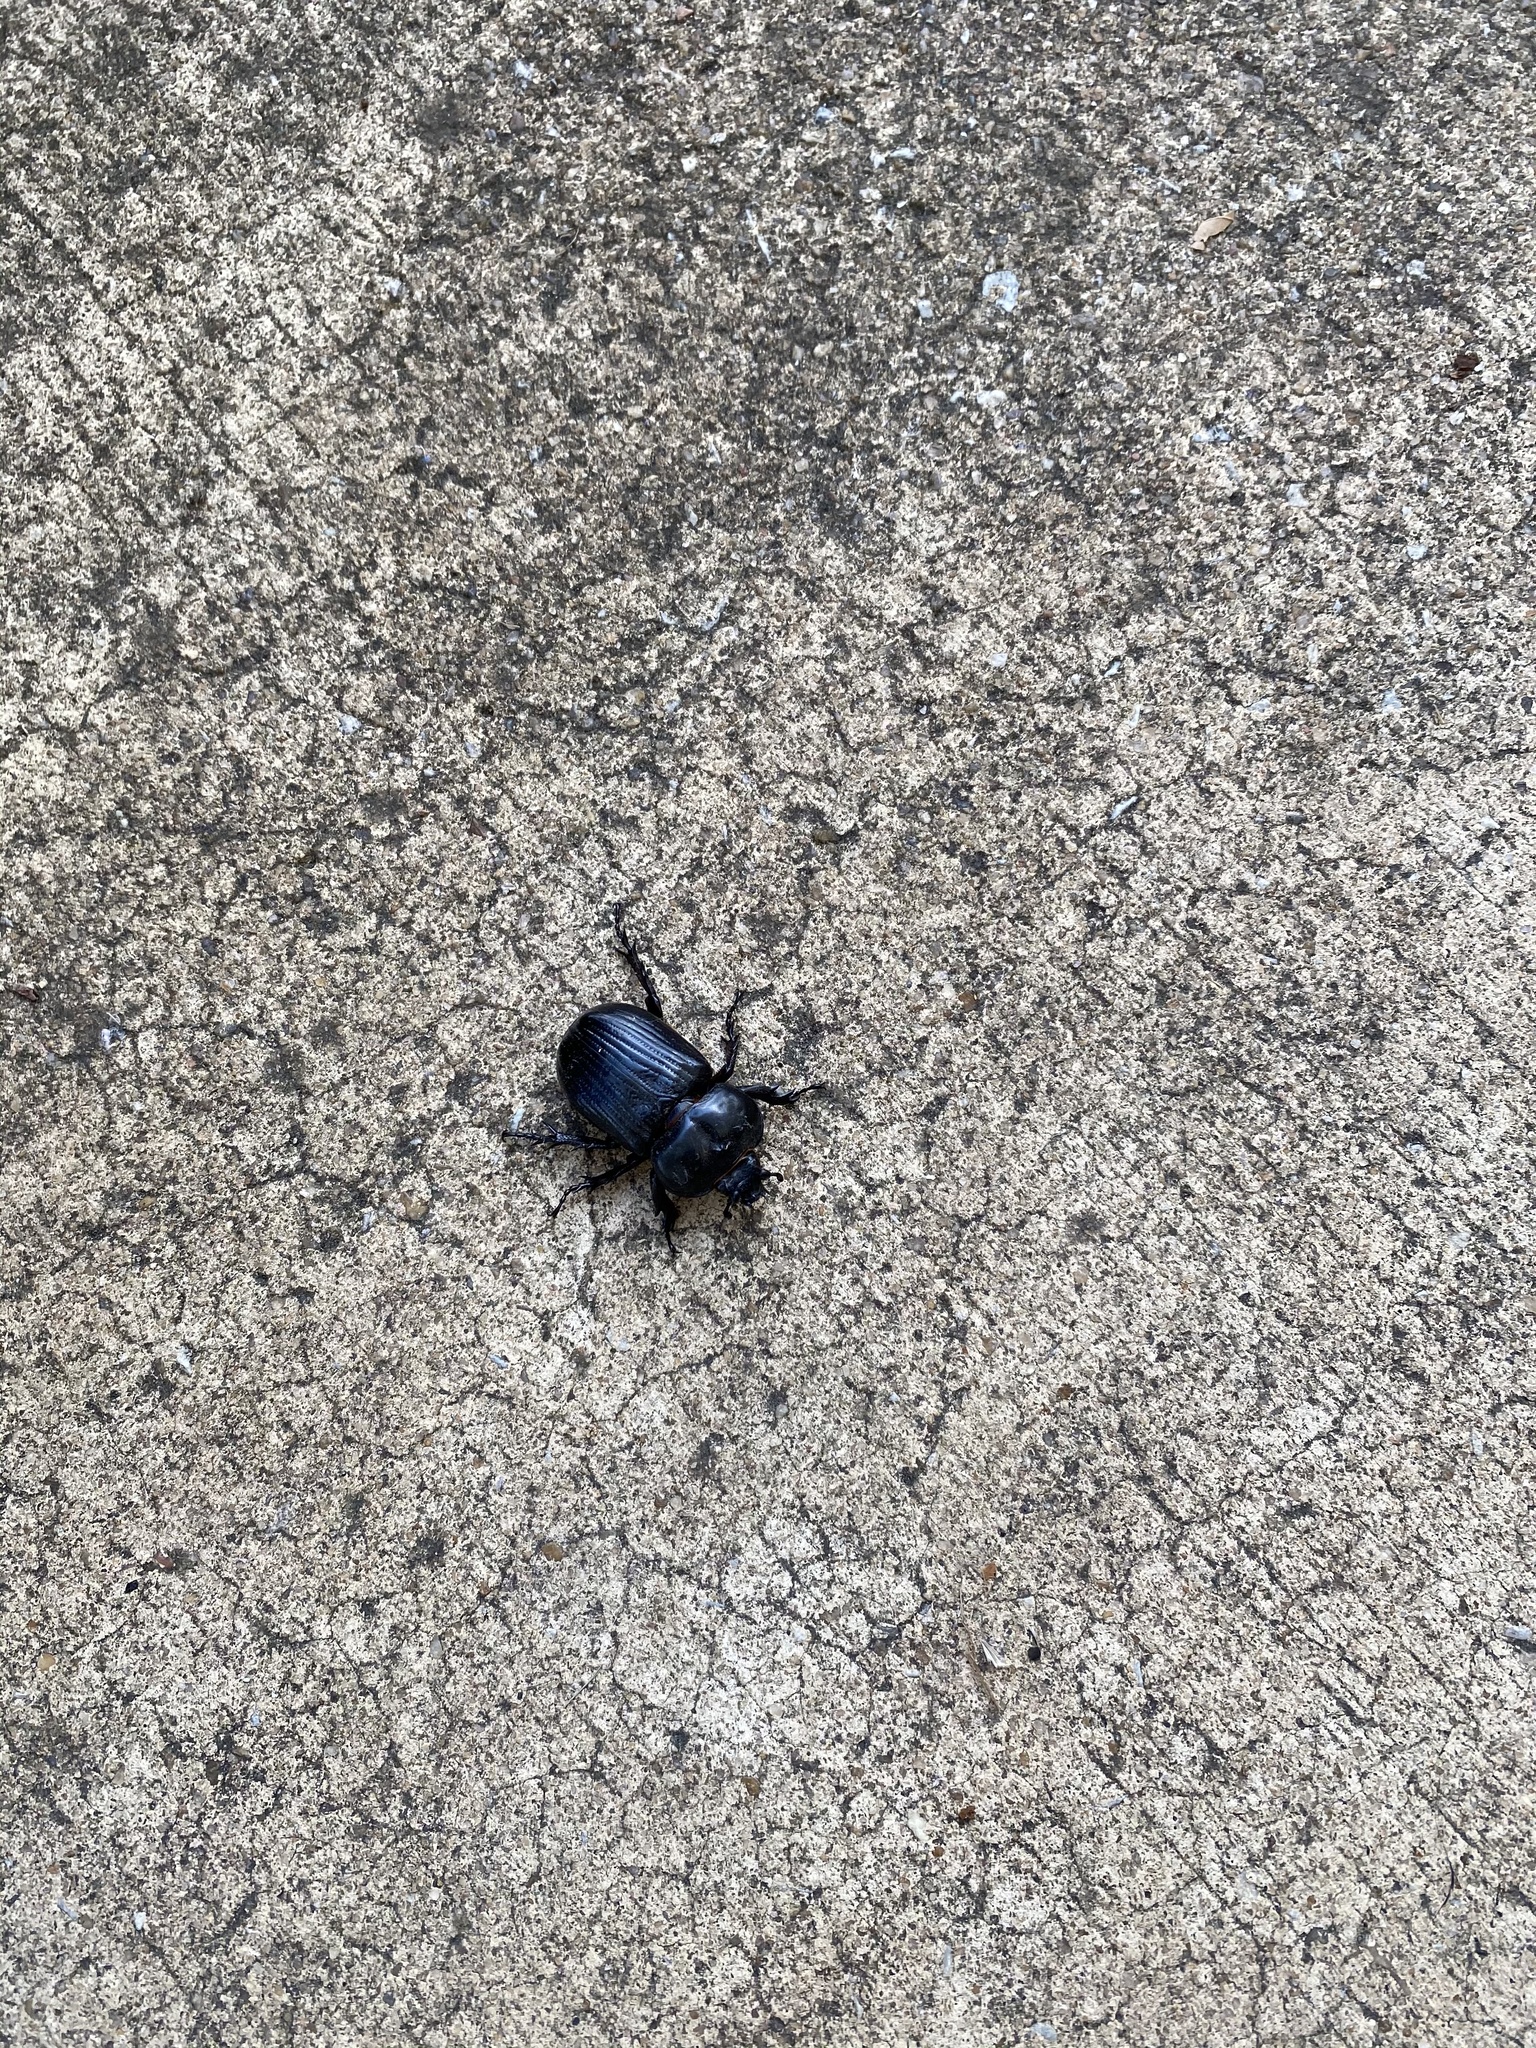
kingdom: Animalia
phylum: Arthropoda
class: Insecta
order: Coleoptera
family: Scarabaeidae
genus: Phileurus
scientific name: Phileurus truncatus
